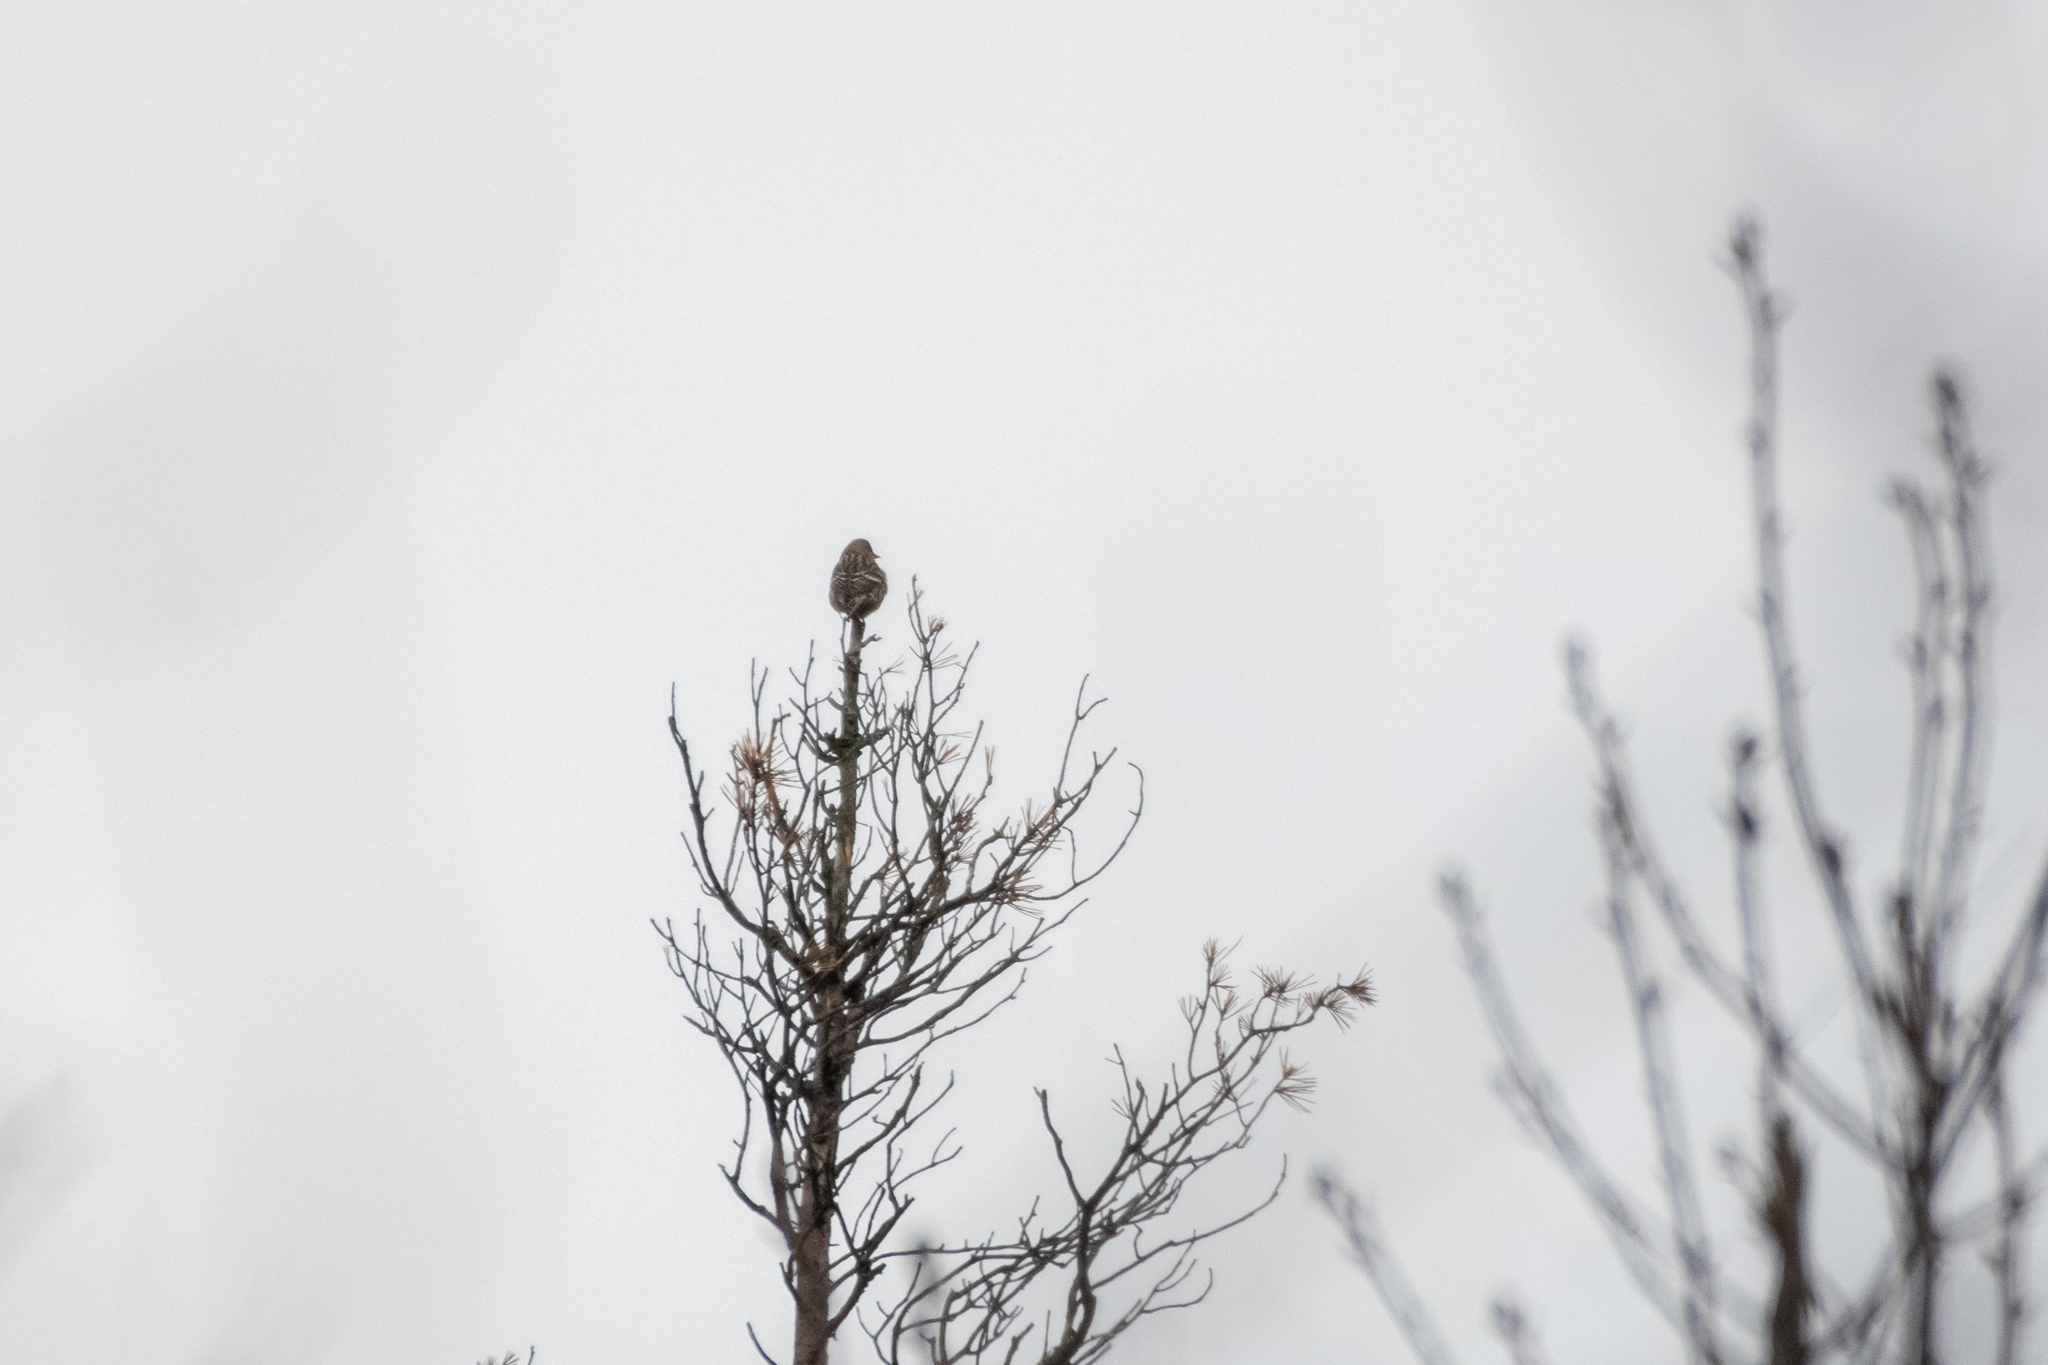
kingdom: Animalia
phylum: Chordata
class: Aves
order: Passeriformes
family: Fringillidae
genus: Spinus
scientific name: Spinus pinus
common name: Pine siskin
